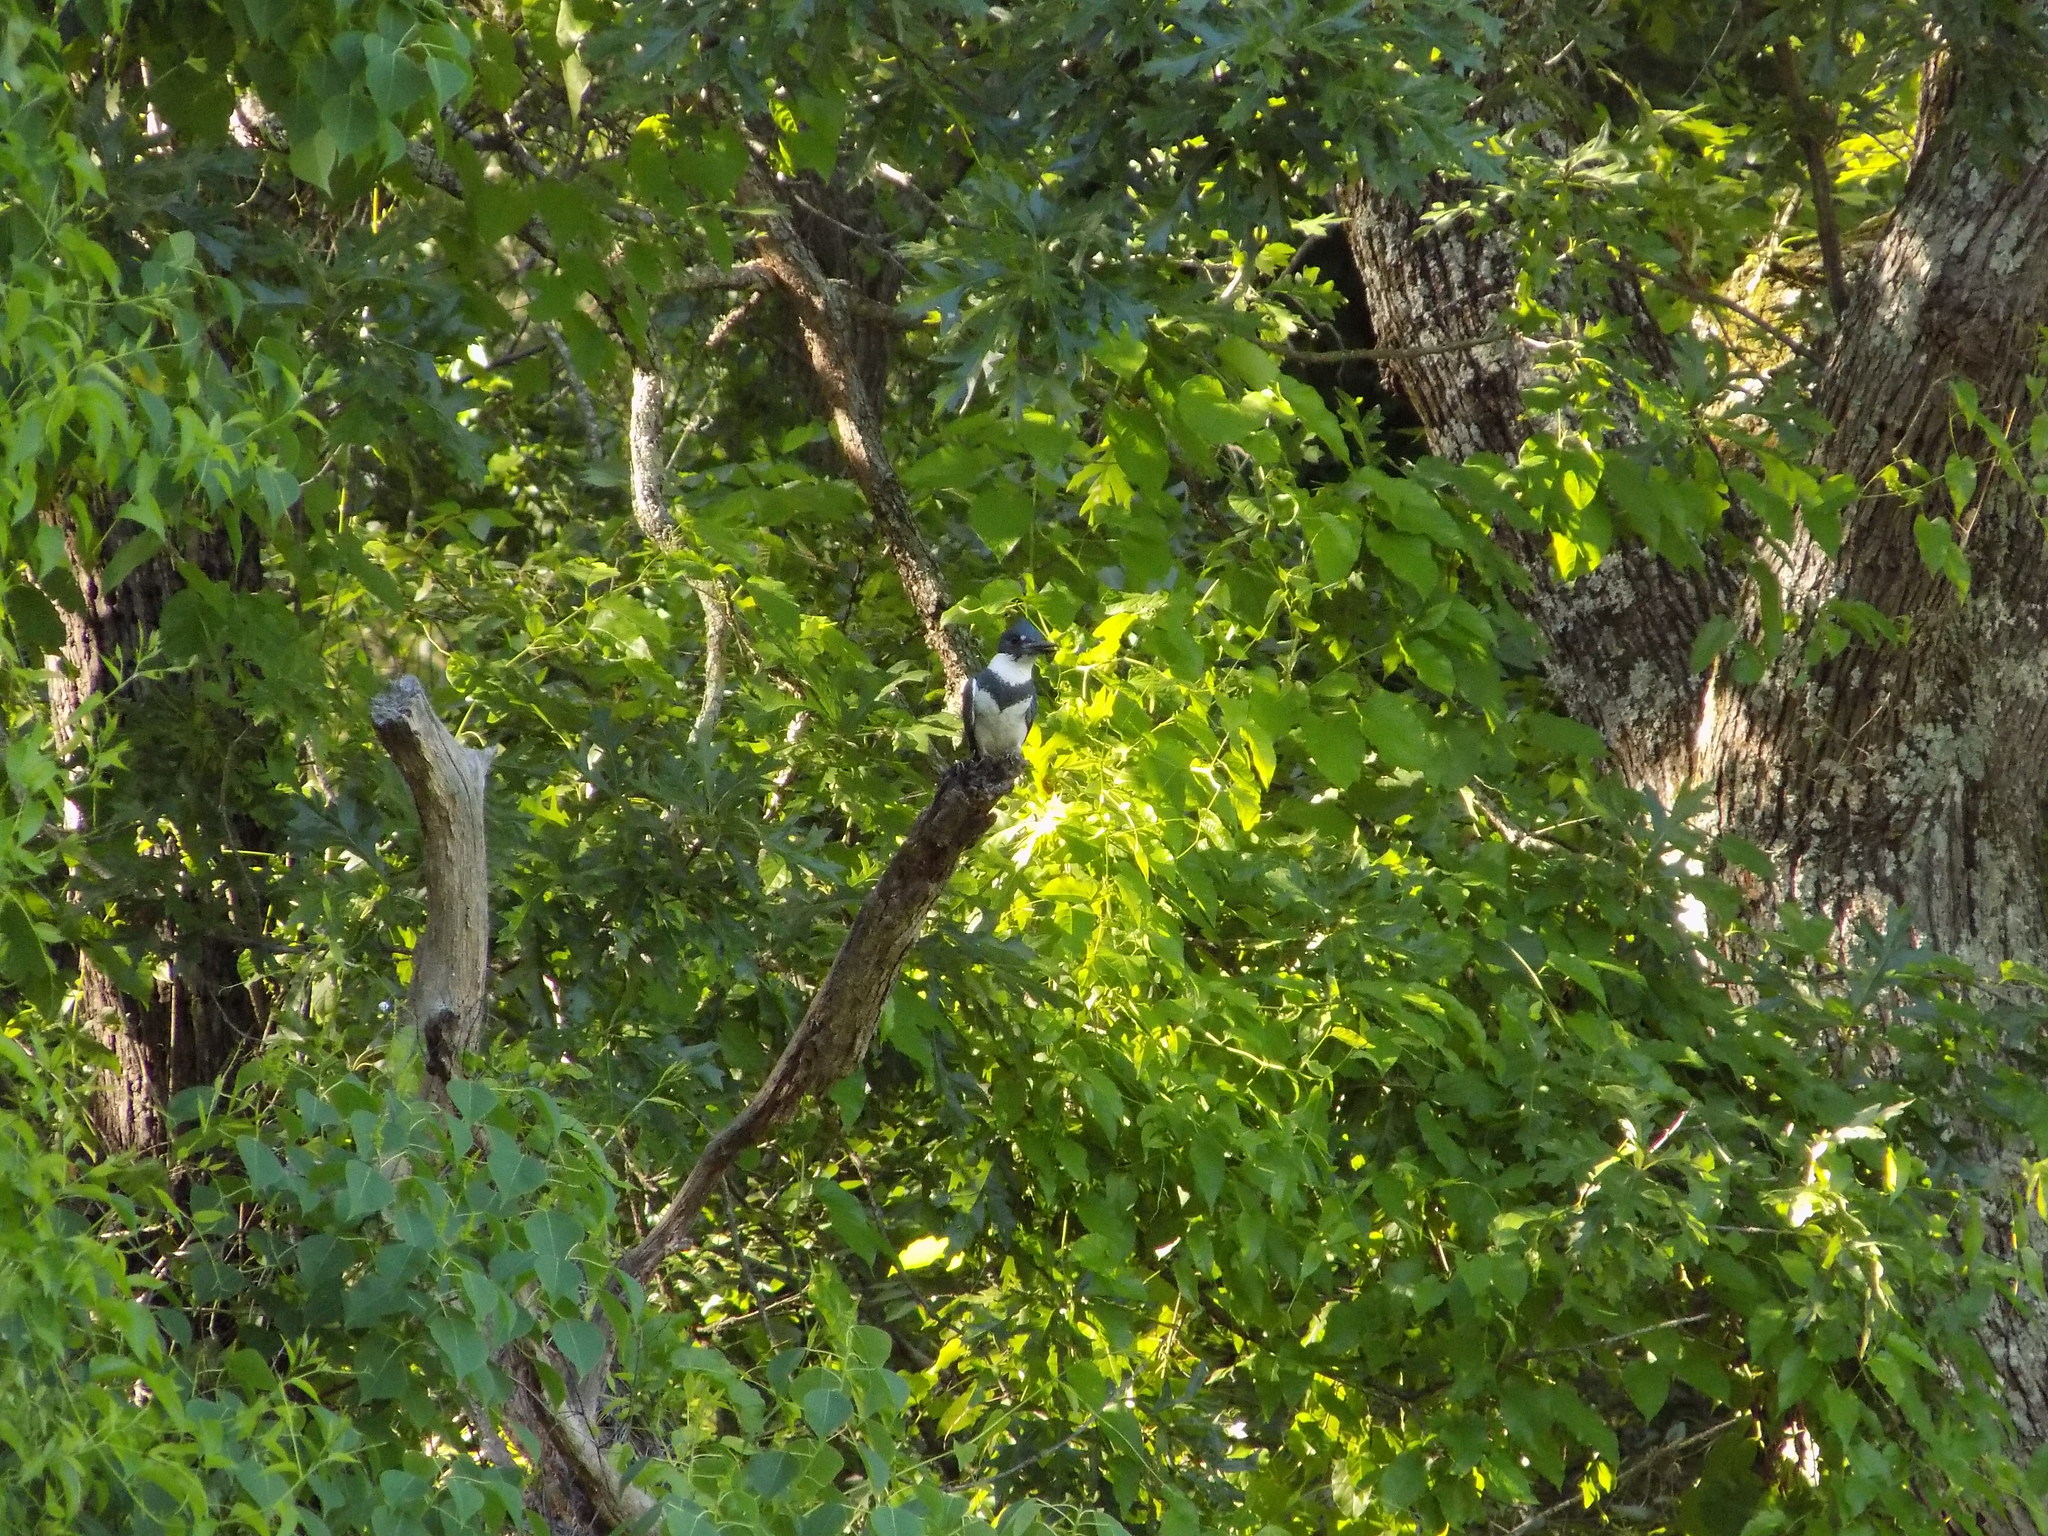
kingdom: Animalia
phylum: Chordata
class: Aves
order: Coraciiformes
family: Alcedinidae
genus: Megaceryle
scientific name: Megaceryle alcyon
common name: Belted kingfisher
